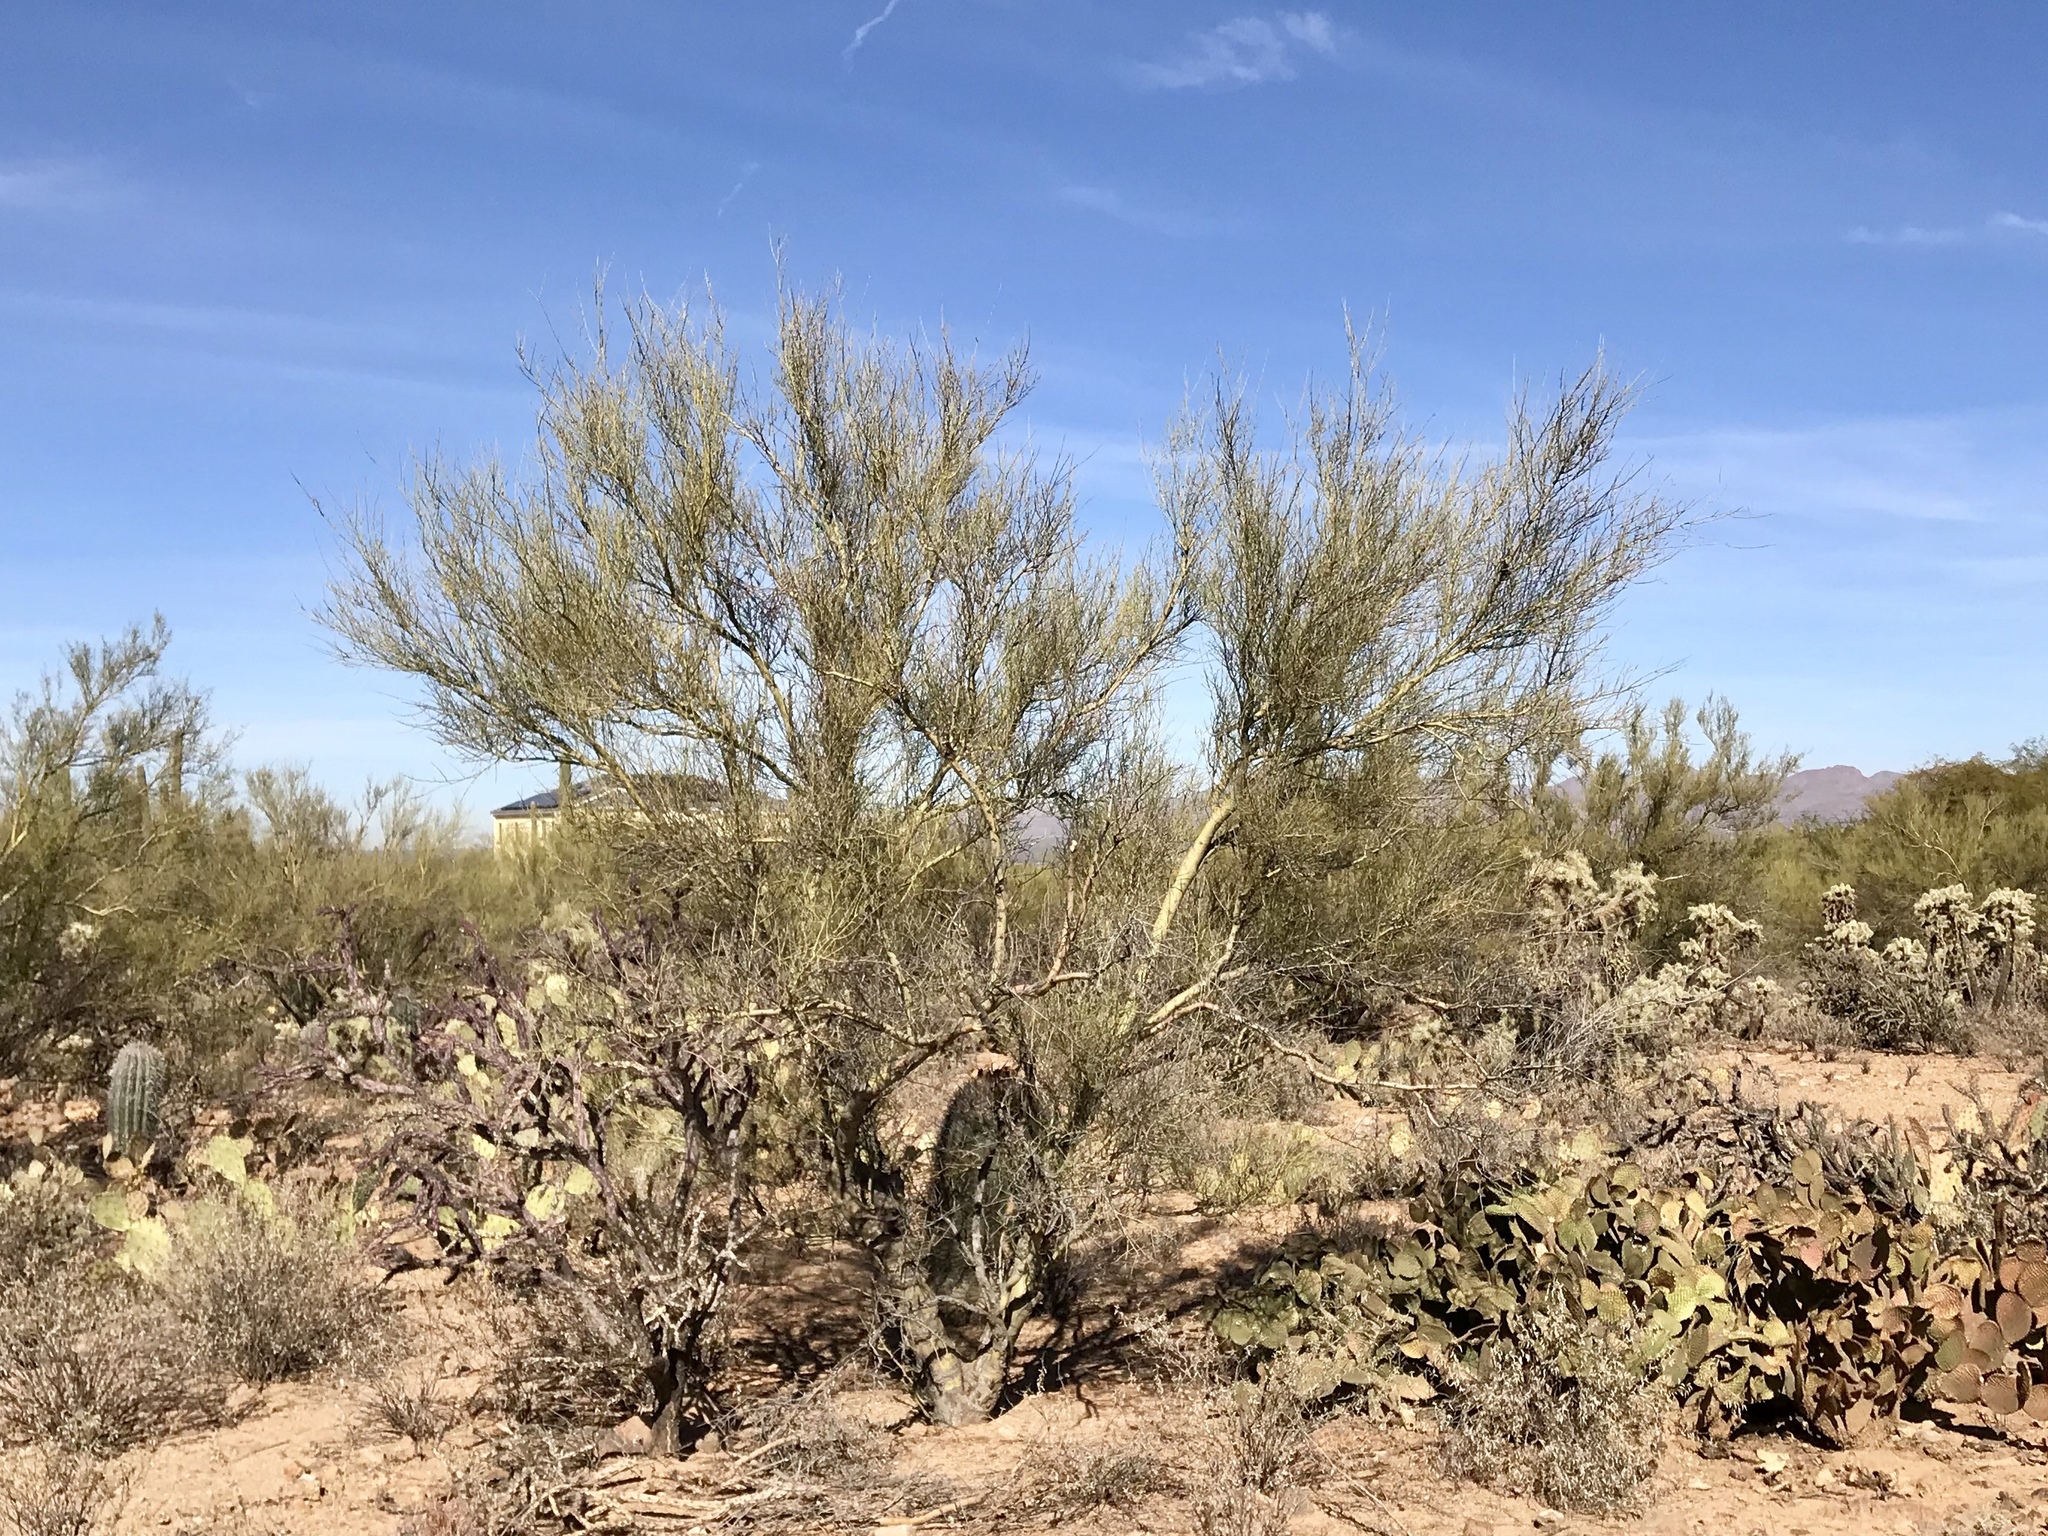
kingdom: Plantae
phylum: Tracheophyta
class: Magnoliopsida
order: Fabales
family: Fabaceae
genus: Parkinsonia
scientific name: Parkinsonia microphylla
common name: Yellow paloverde
